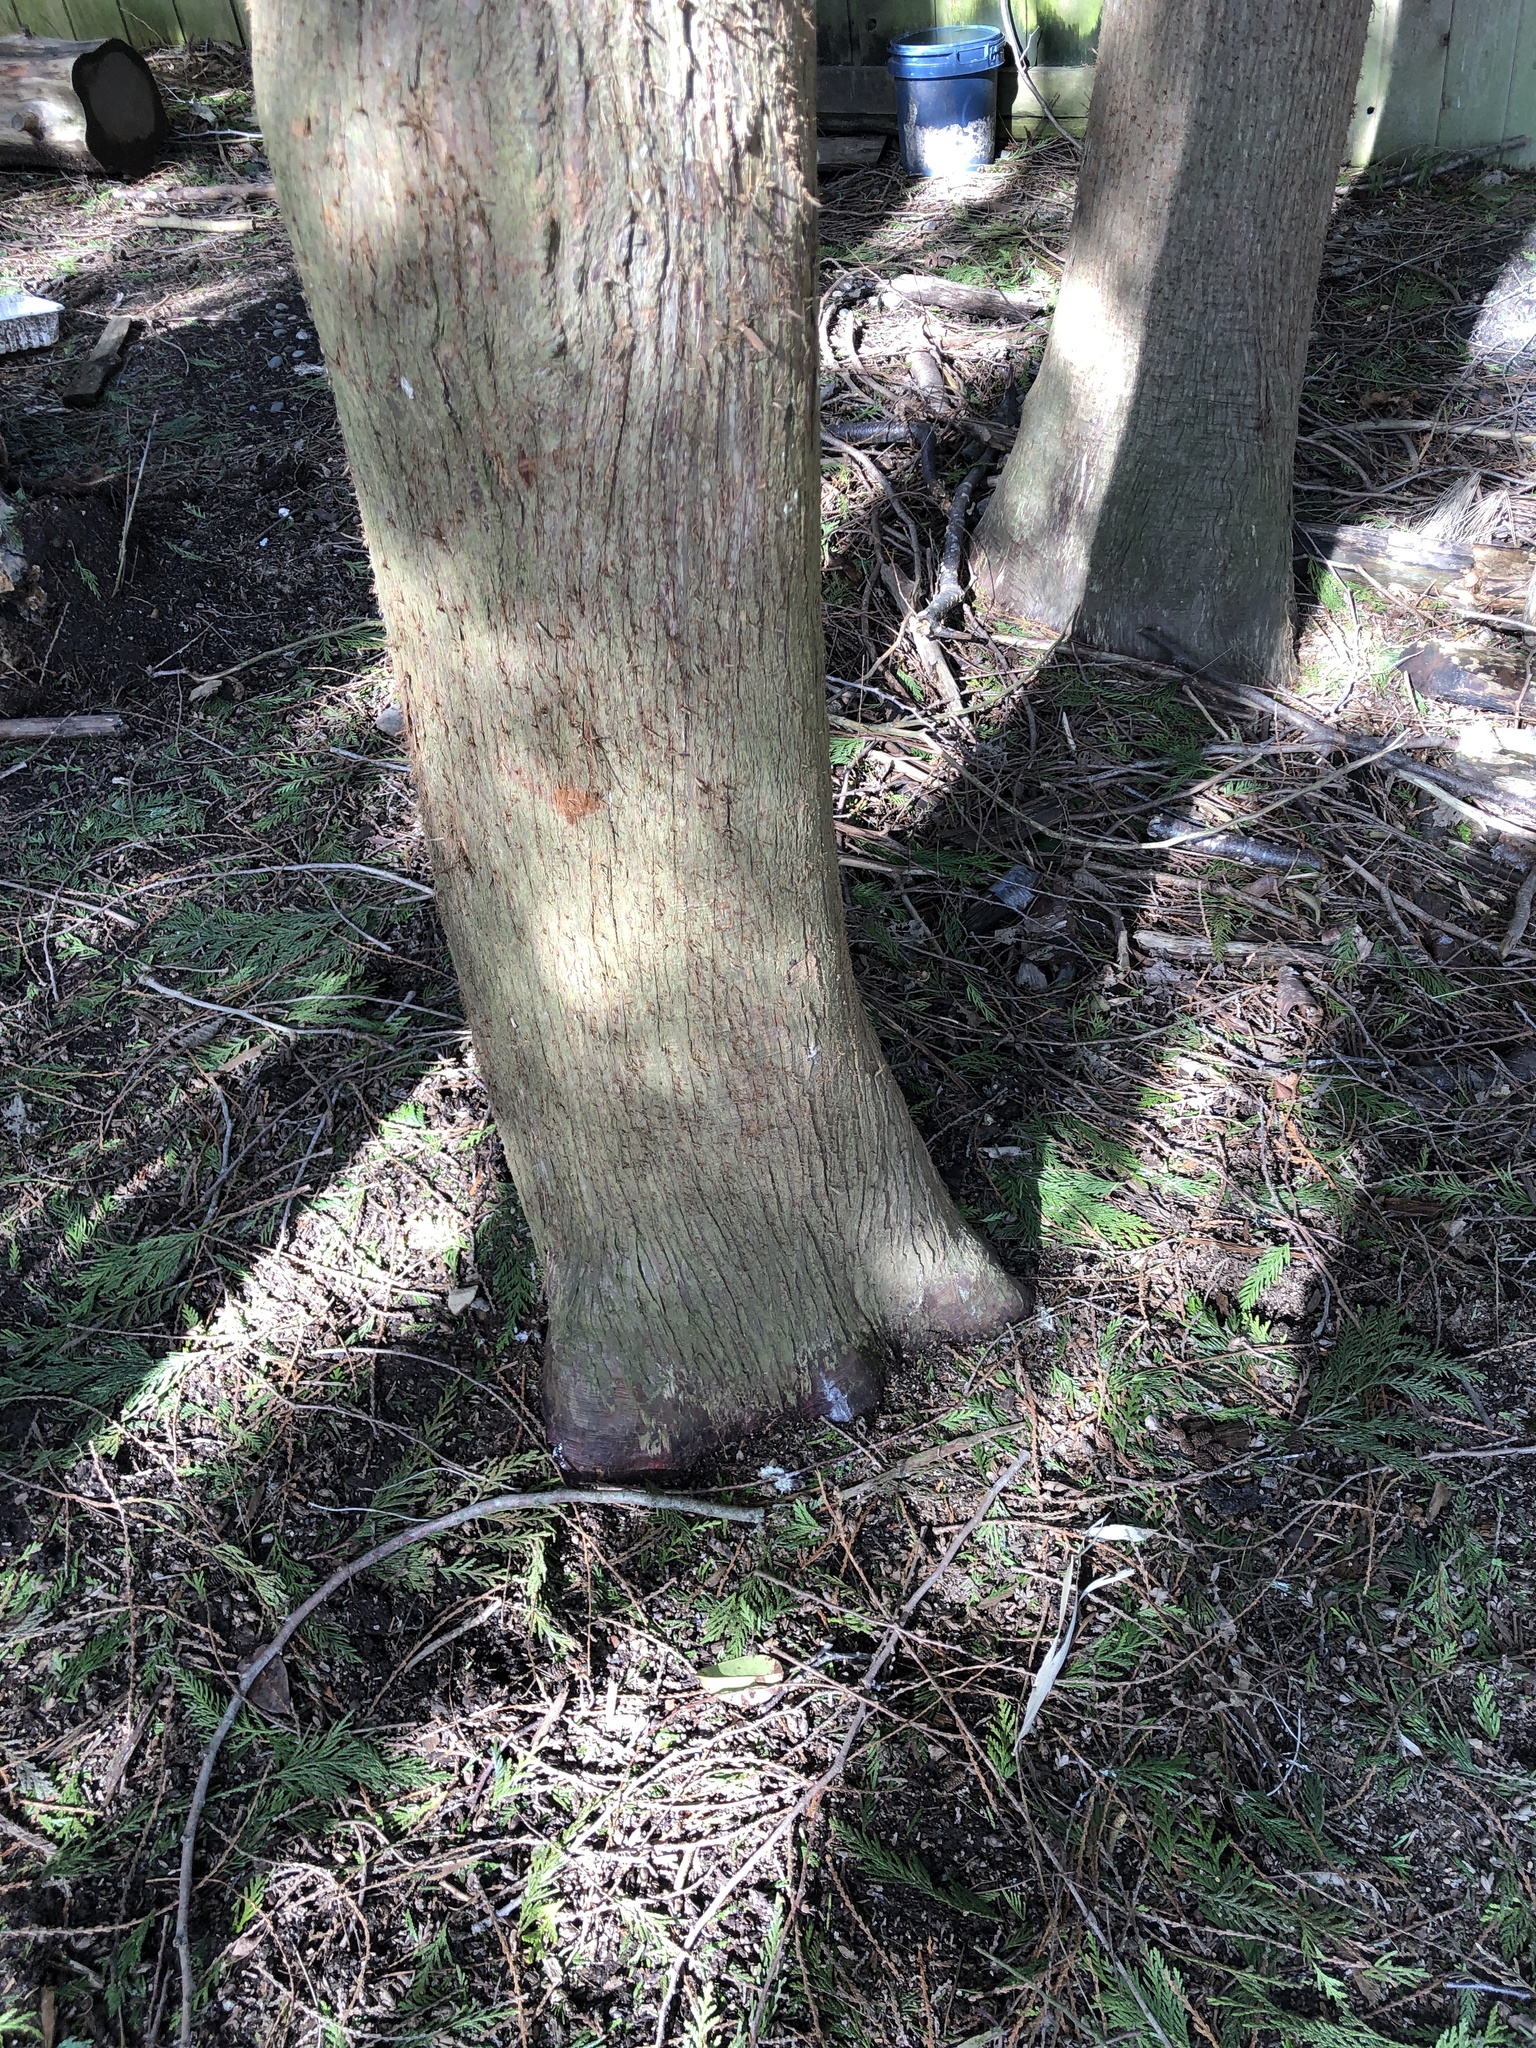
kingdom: Plantae
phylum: Tracheophyta
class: Pinopsida
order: Pinales
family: Cupressaceae
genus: Thuja
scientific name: Thuja plicata
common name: Western red-cedar
